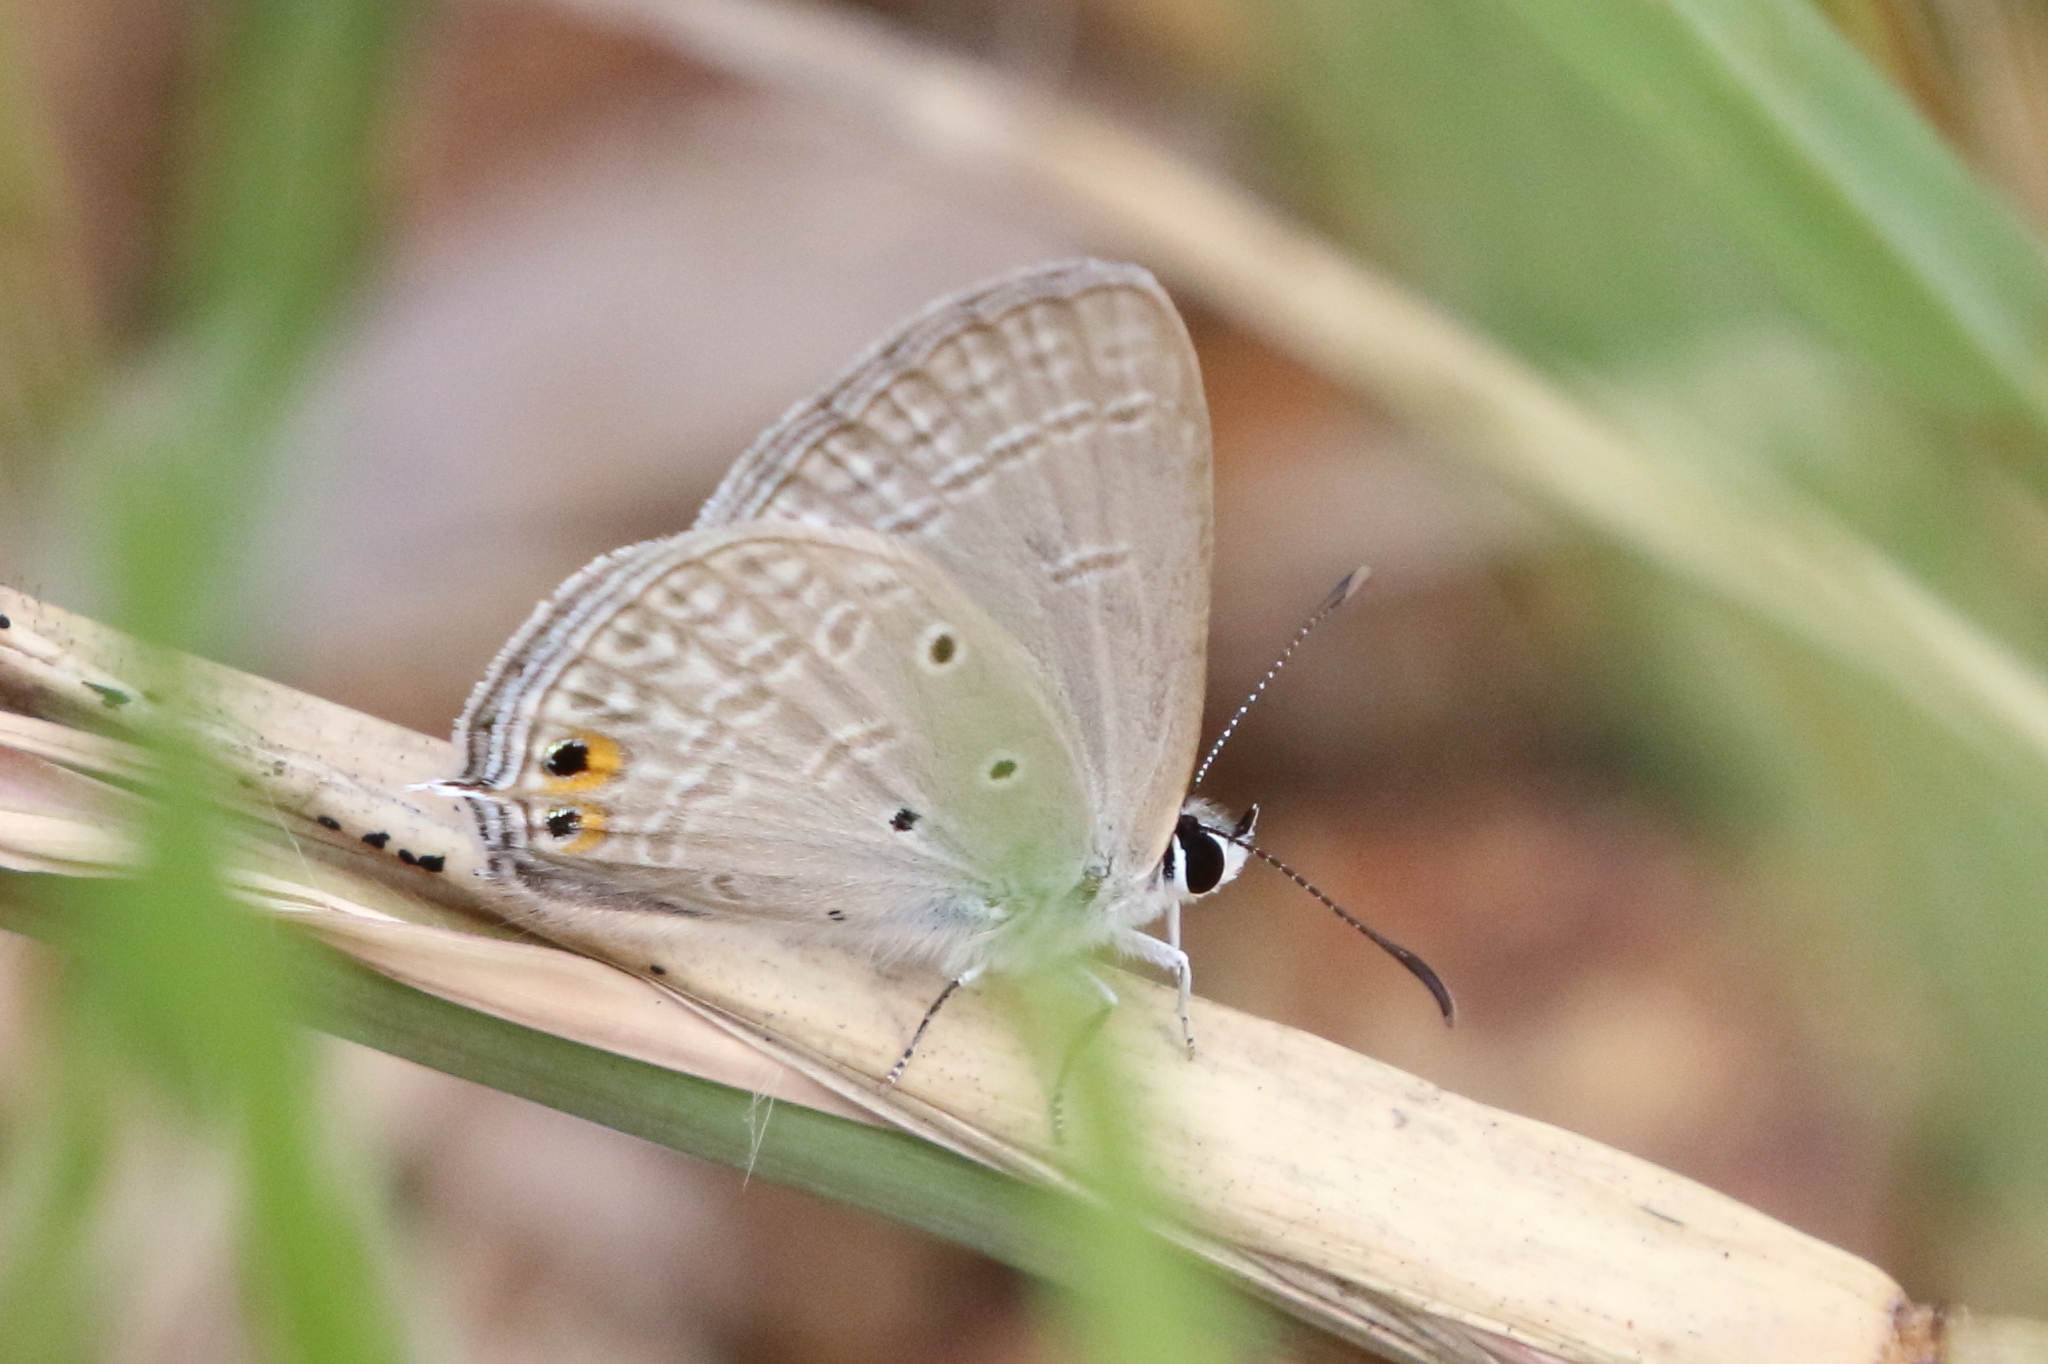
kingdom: Animalia
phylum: Arthropoda
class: Insecta
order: Lepidoptera
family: Lycaenidae
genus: Euchrysops
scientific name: Euchrysops cnejus
